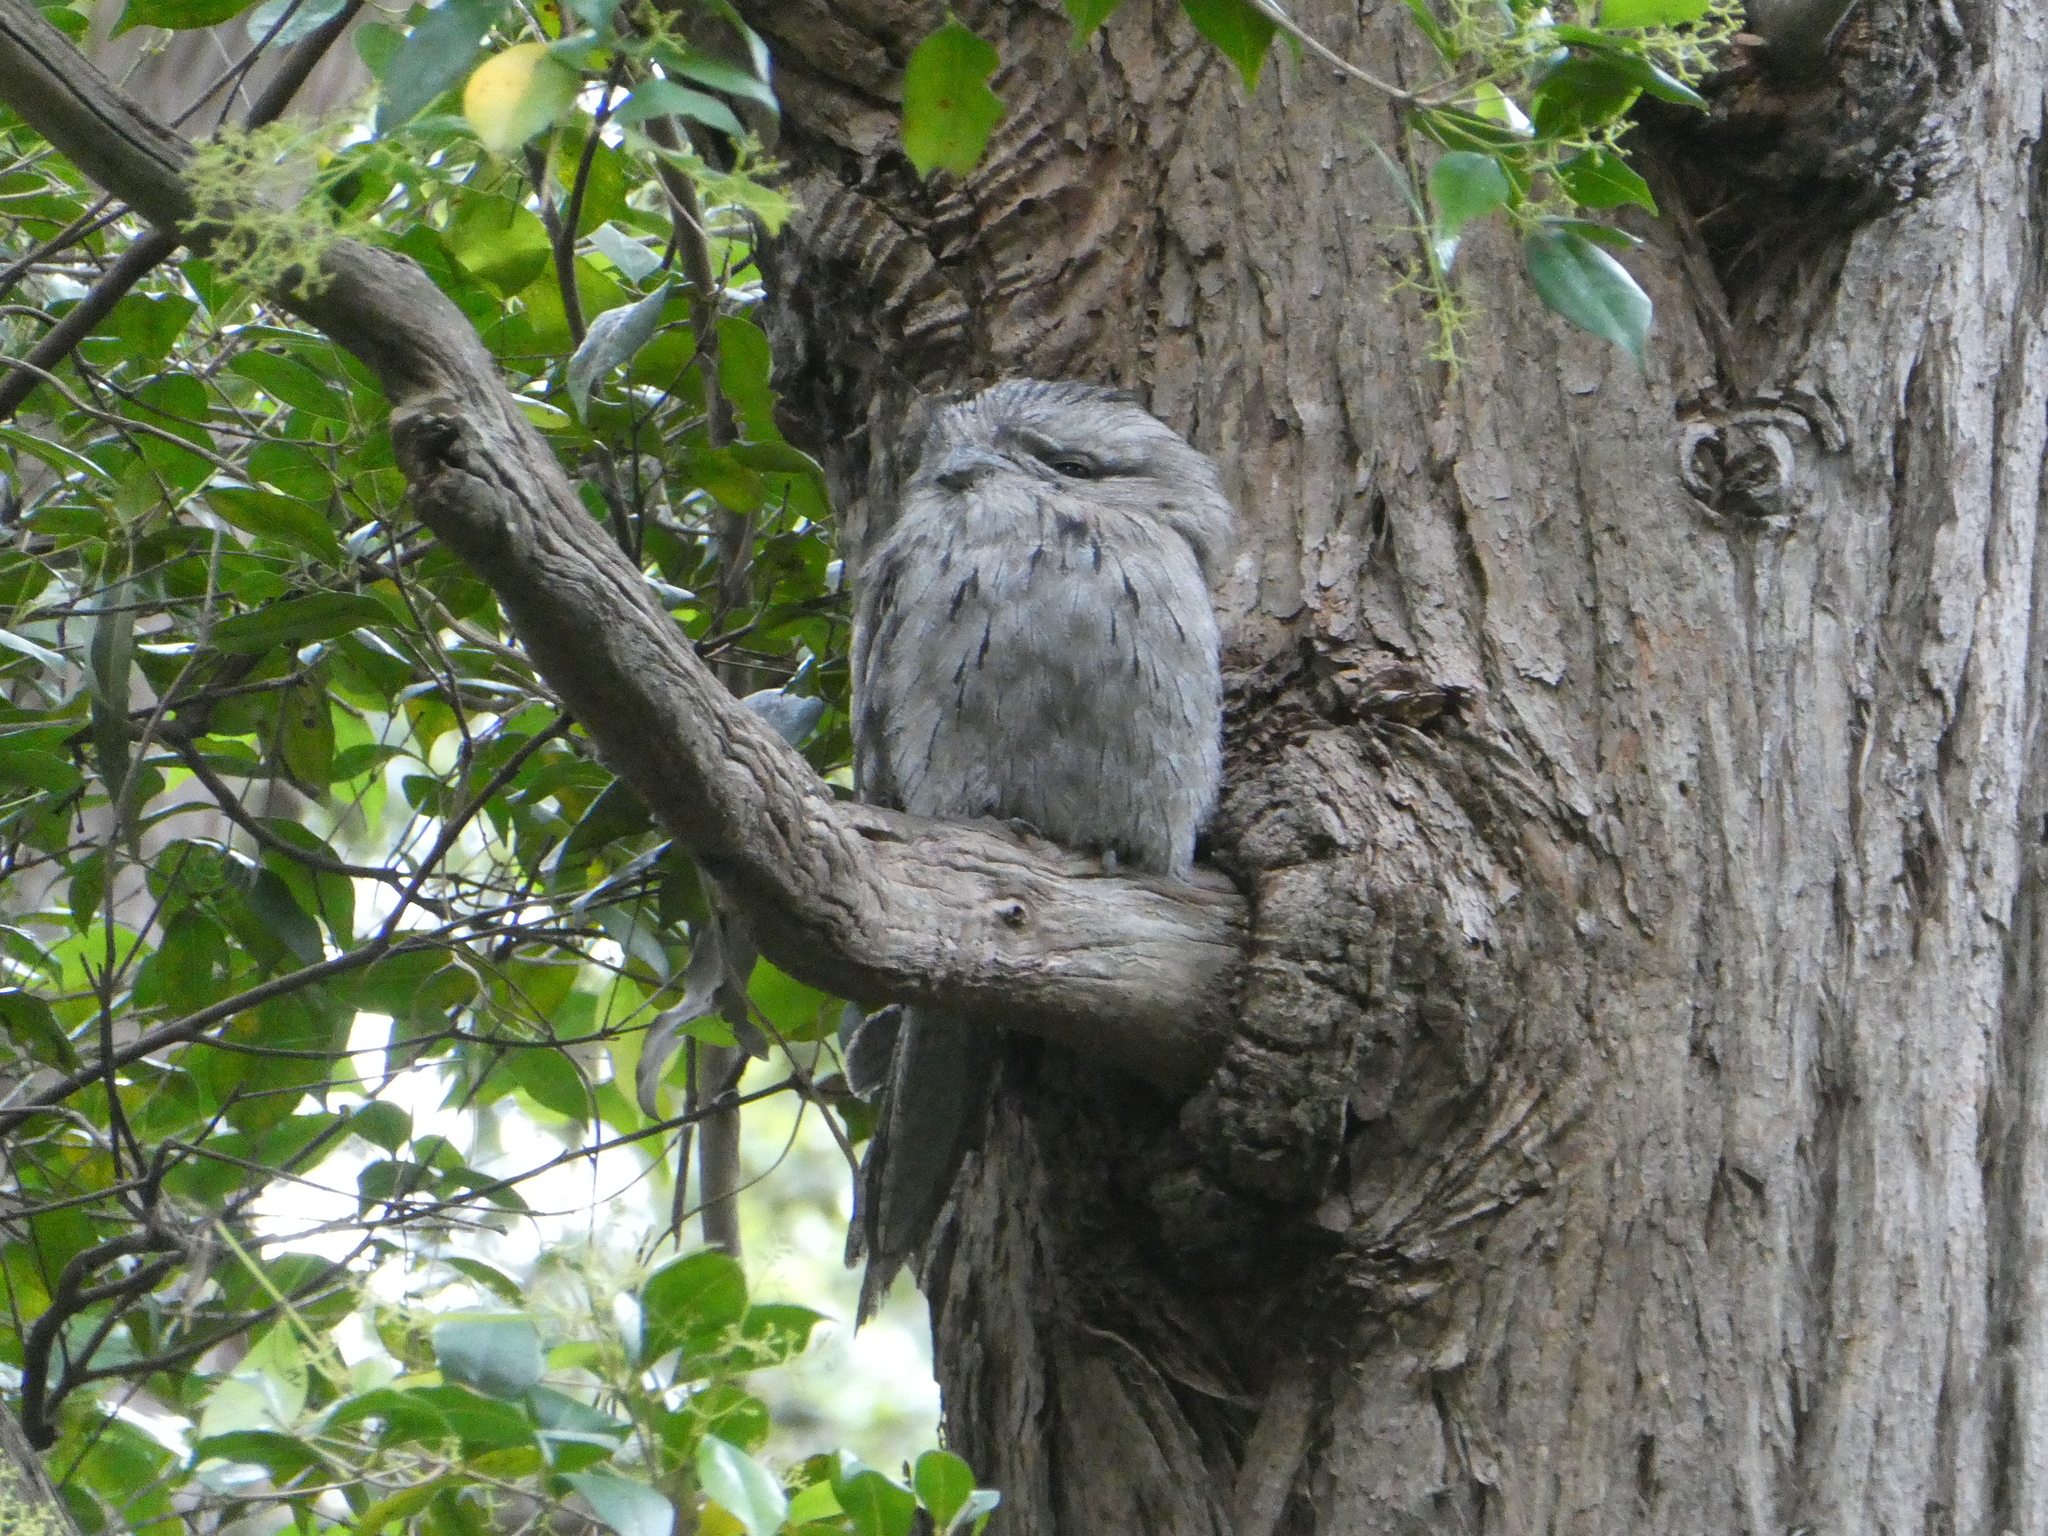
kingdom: Animalia
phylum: Chordata
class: Aves
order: Caprimulgiformes
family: Podargidae
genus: Podargus
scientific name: Podargus strigoides
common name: Tawny frogmouth
